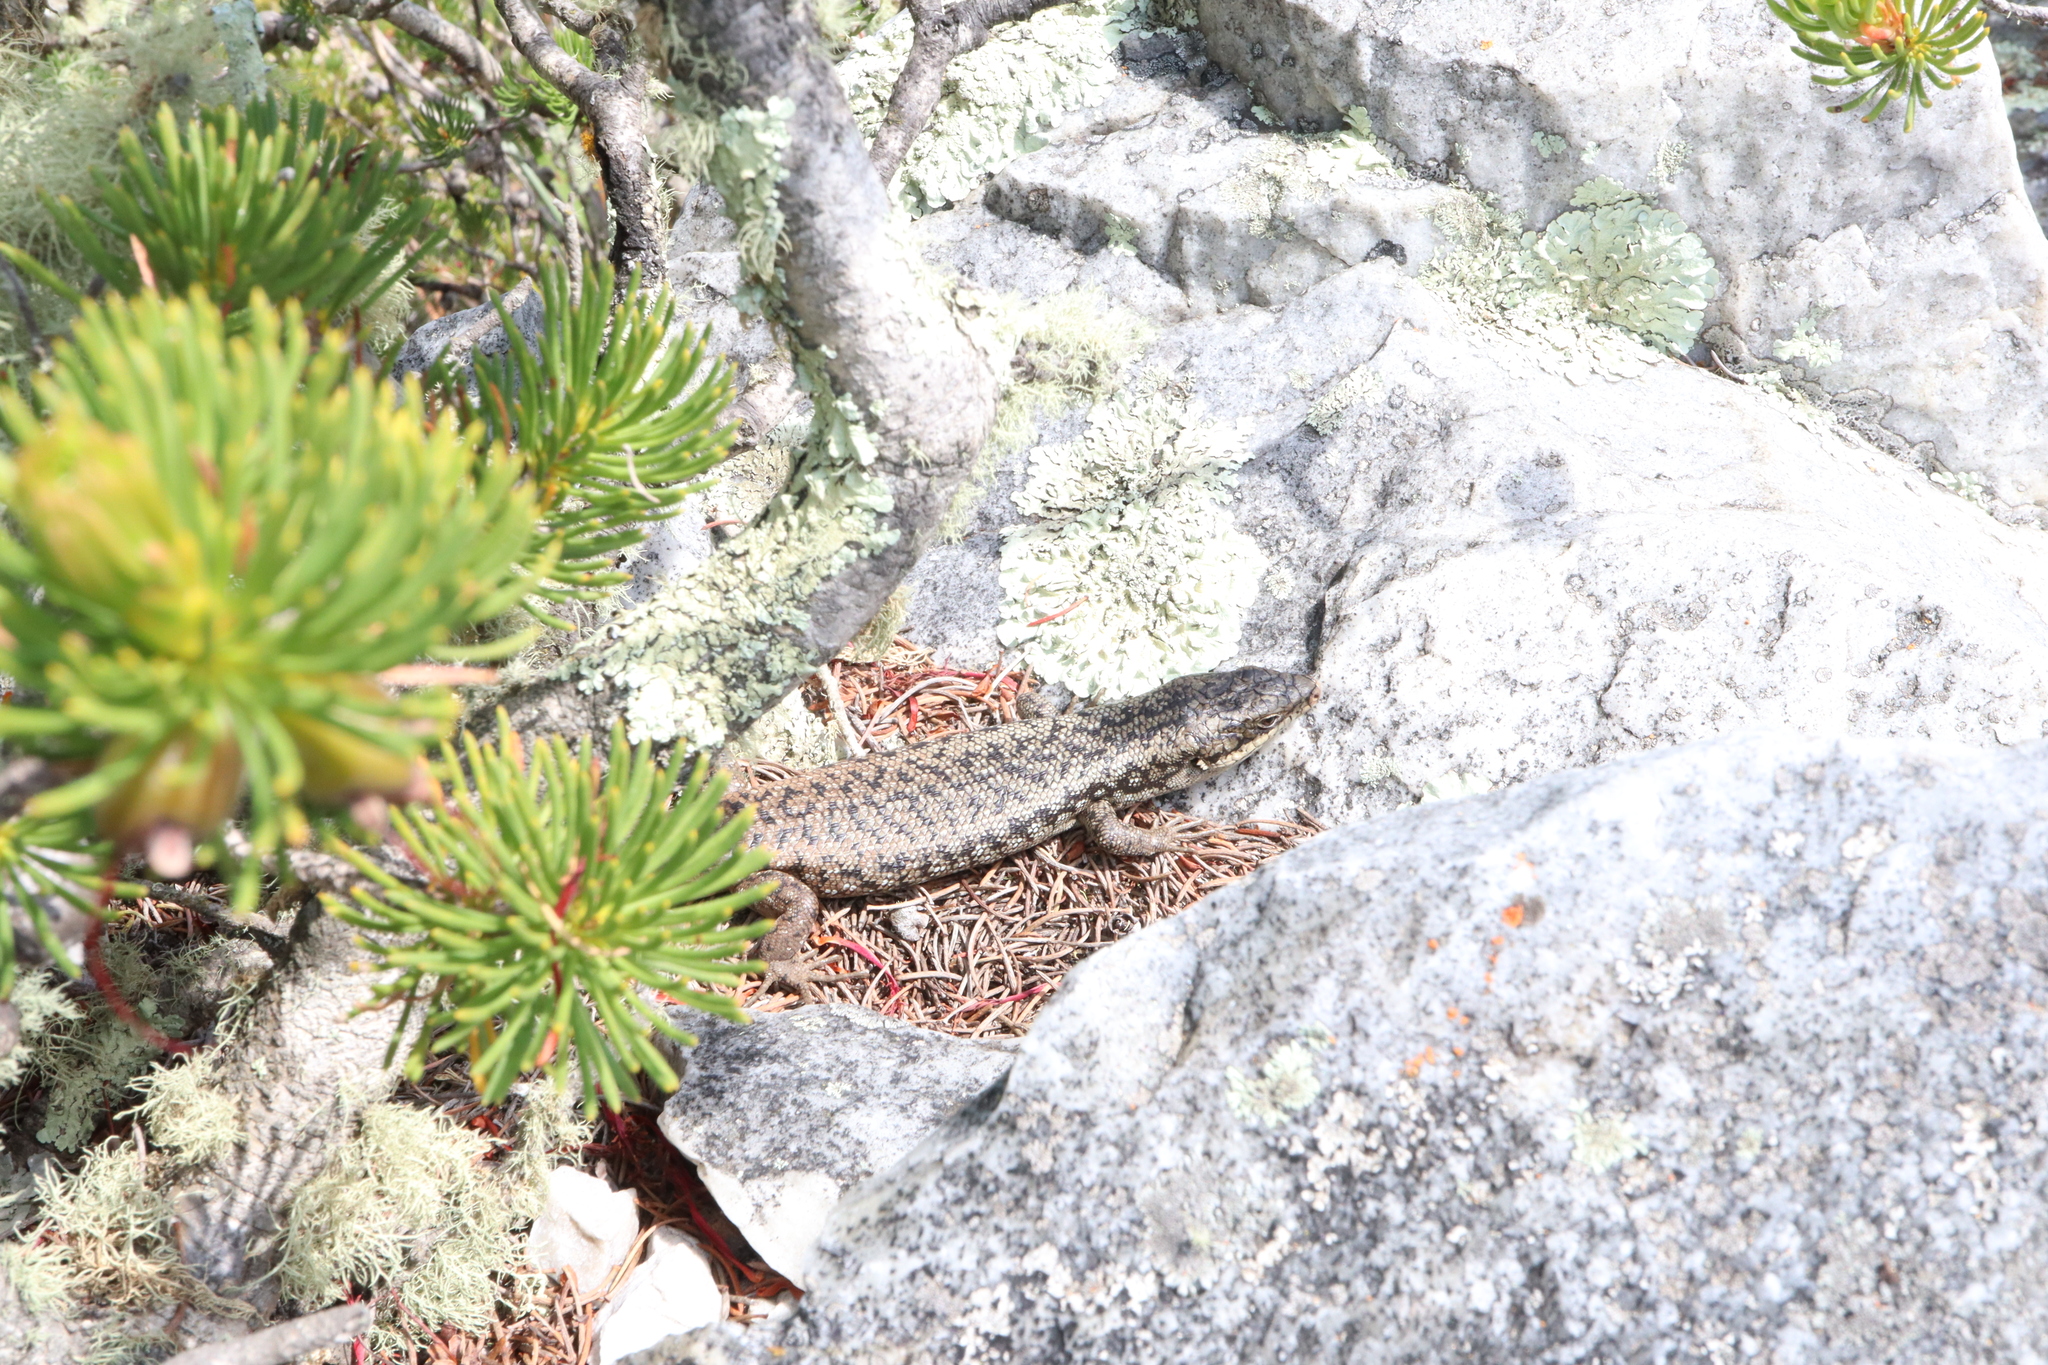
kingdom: Animalia
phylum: Chordata
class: Squamata
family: Scincidae
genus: Egernia
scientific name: Egernia napoleonis
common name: South-western crevice skink
